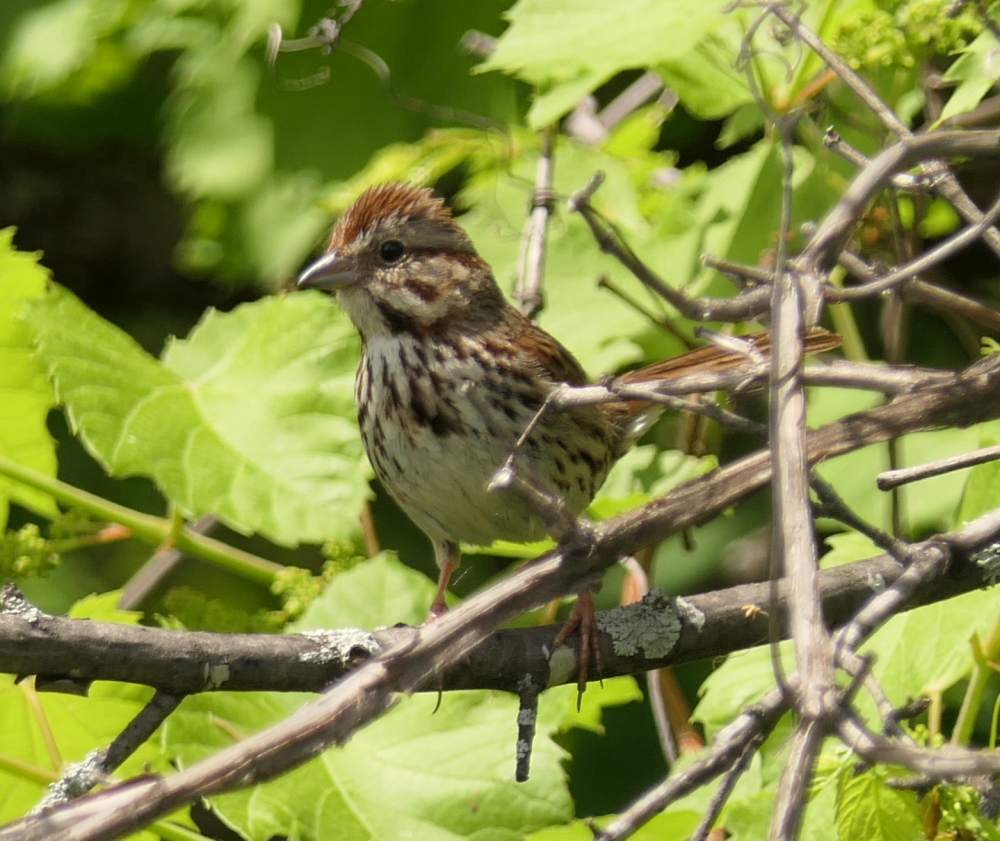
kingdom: Animalia
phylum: Chordata
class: Aves
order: Passeriformes
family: Passerellidae
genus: Melospiza
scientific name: Melospiza melodia
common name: Song sparrow
